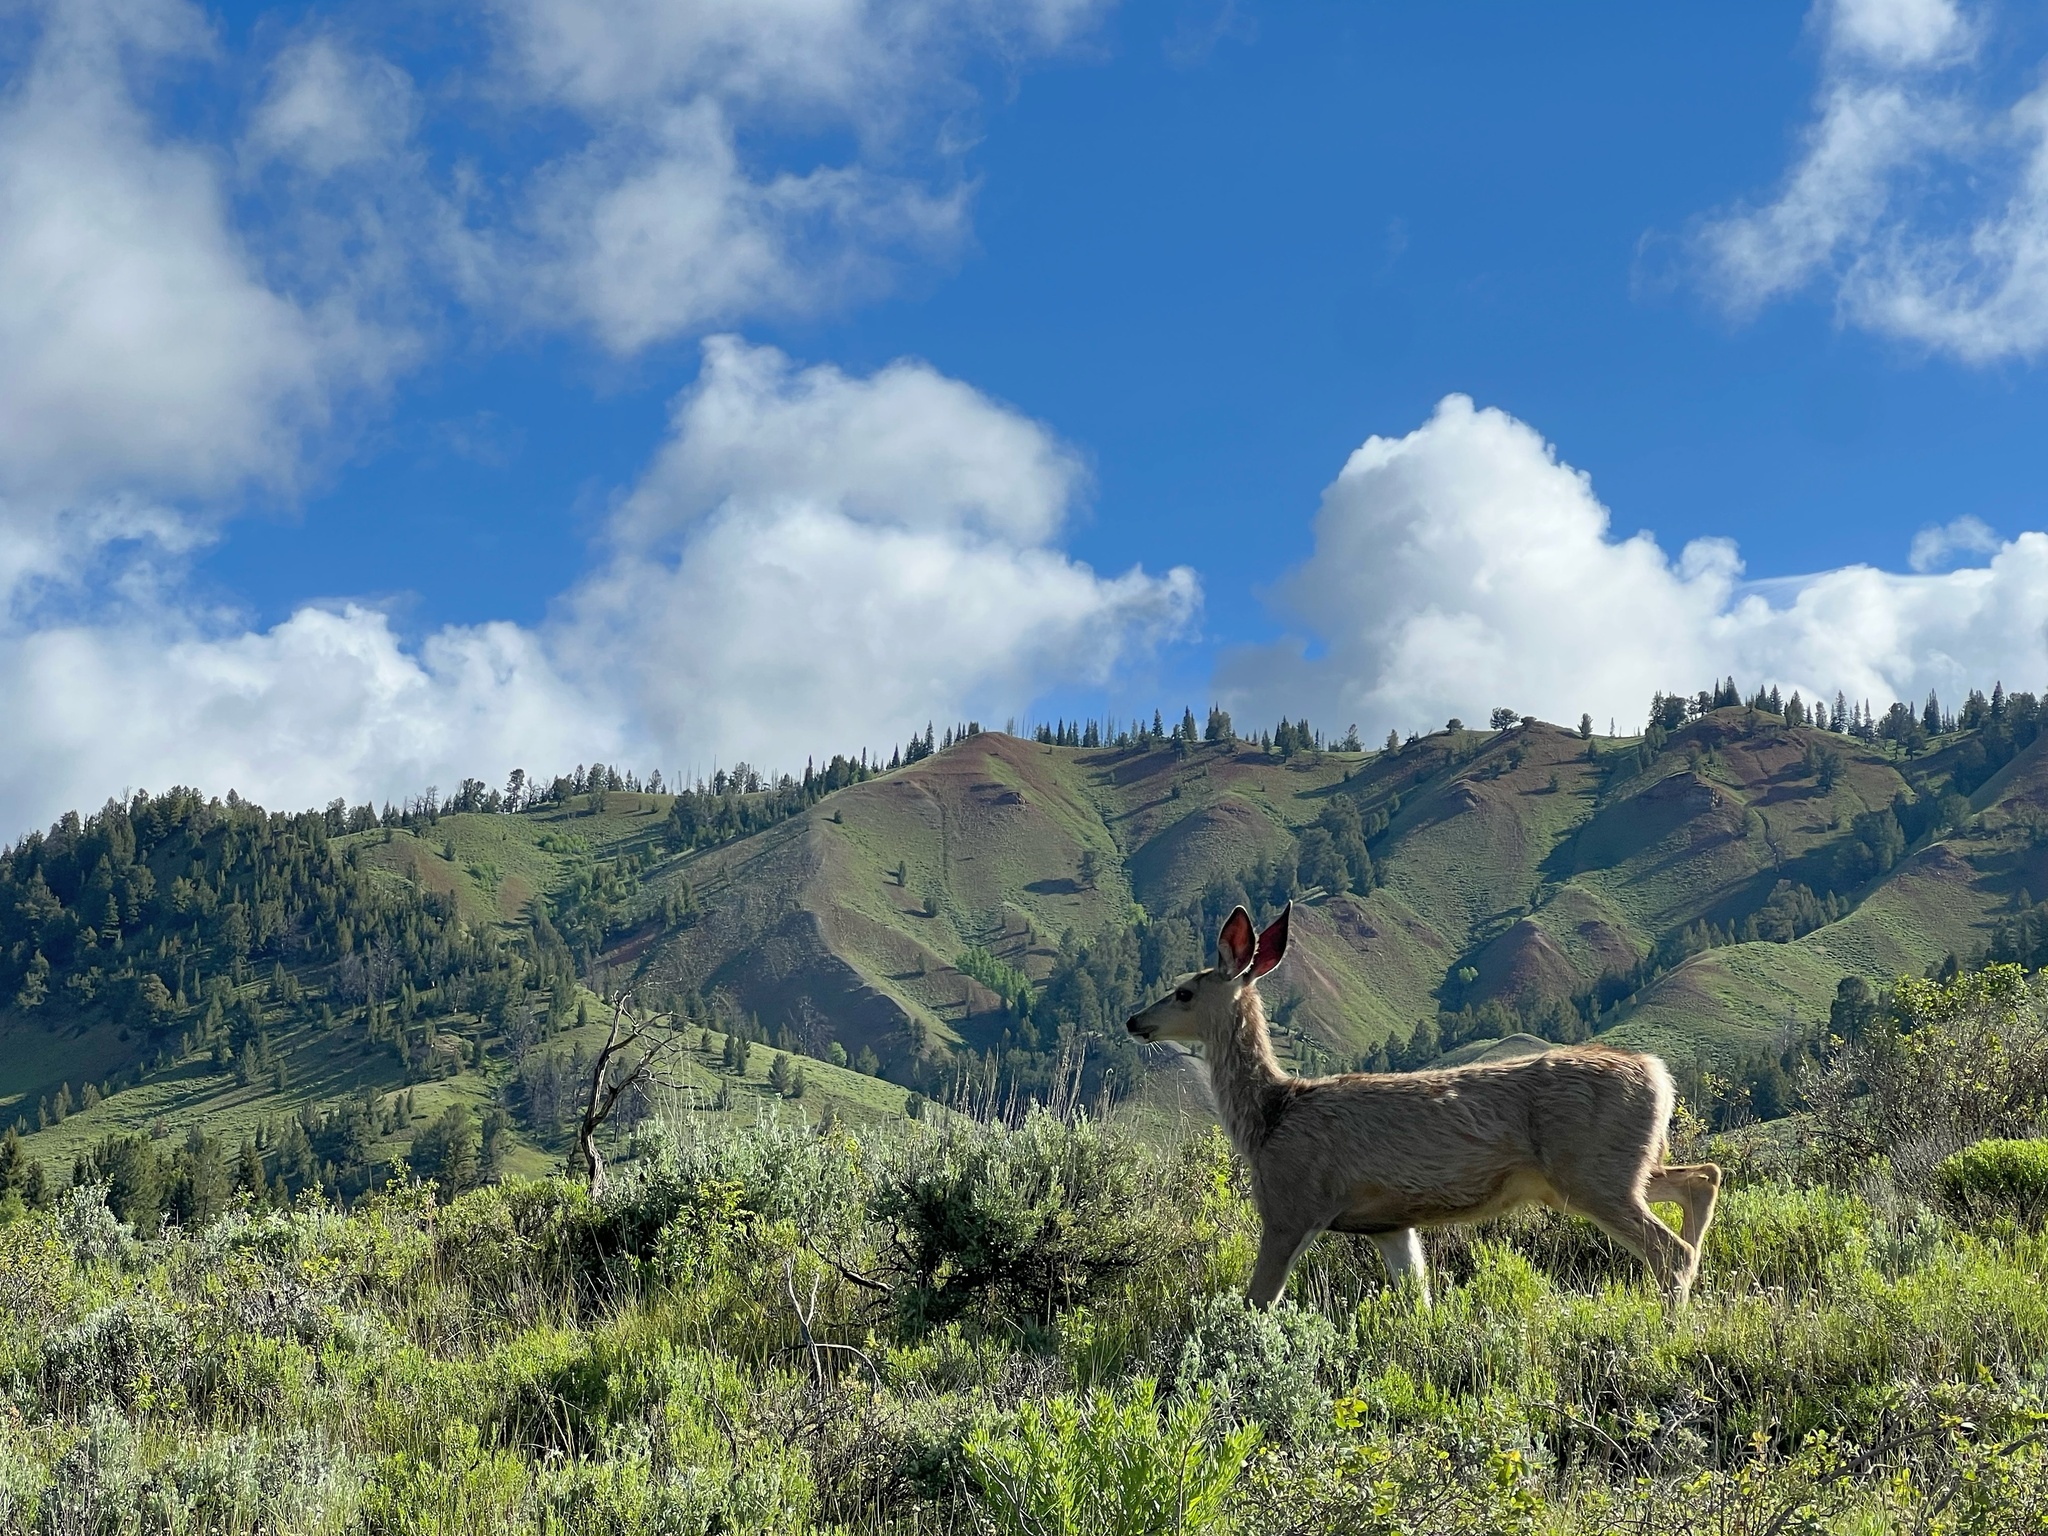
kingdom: Animalia
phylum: Chordata
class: Mammalia
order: Artiodactyla
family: Cervidae
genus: Odocoileus
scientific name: Odocoileus hemionus
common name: Mule deer
